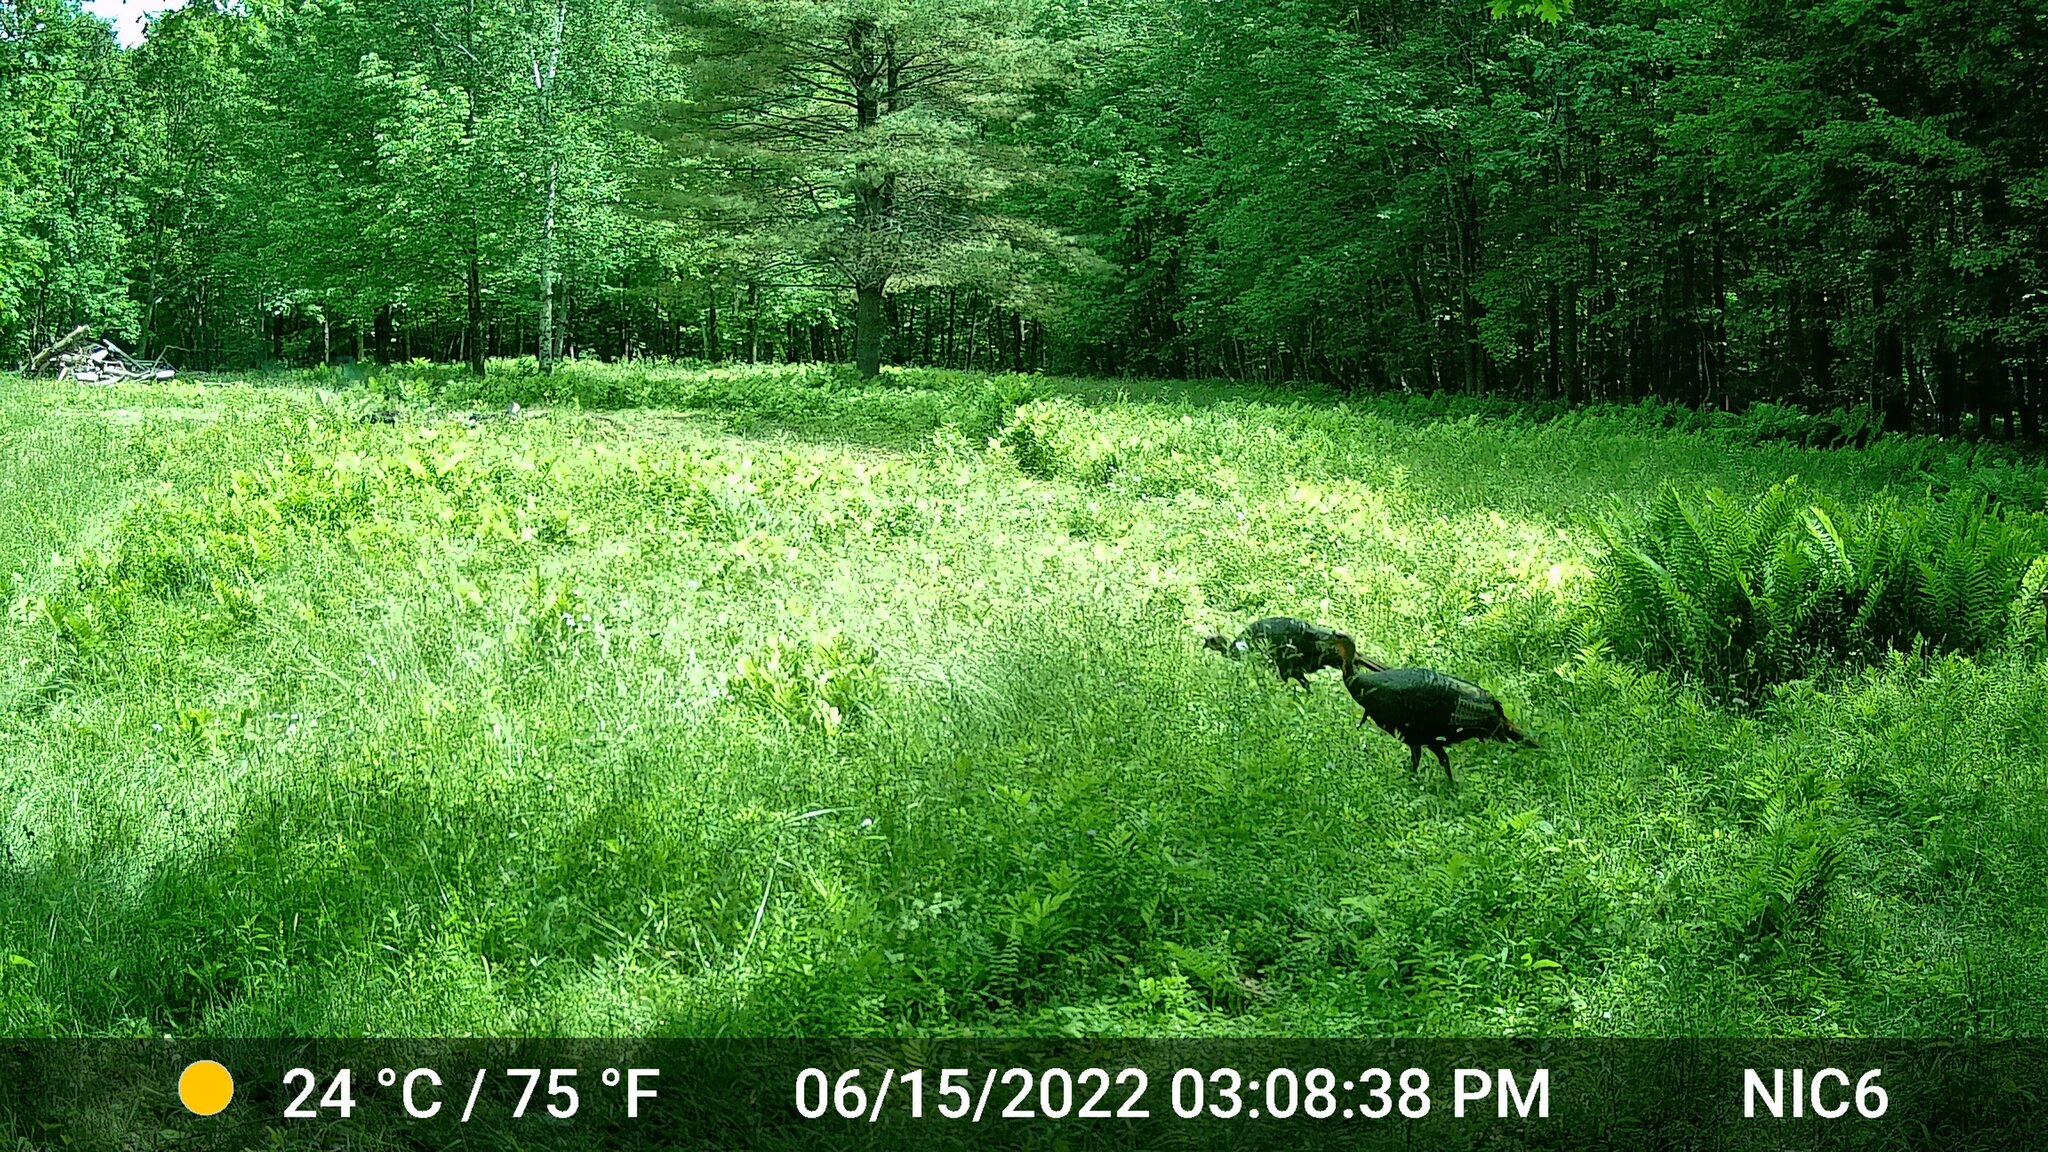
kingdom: Animalia
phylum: Chordata
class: Aves
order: Galliformes
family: Phasianidae
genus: Meleagris
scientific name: Meleagris gallopavo
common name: Wild turkey
